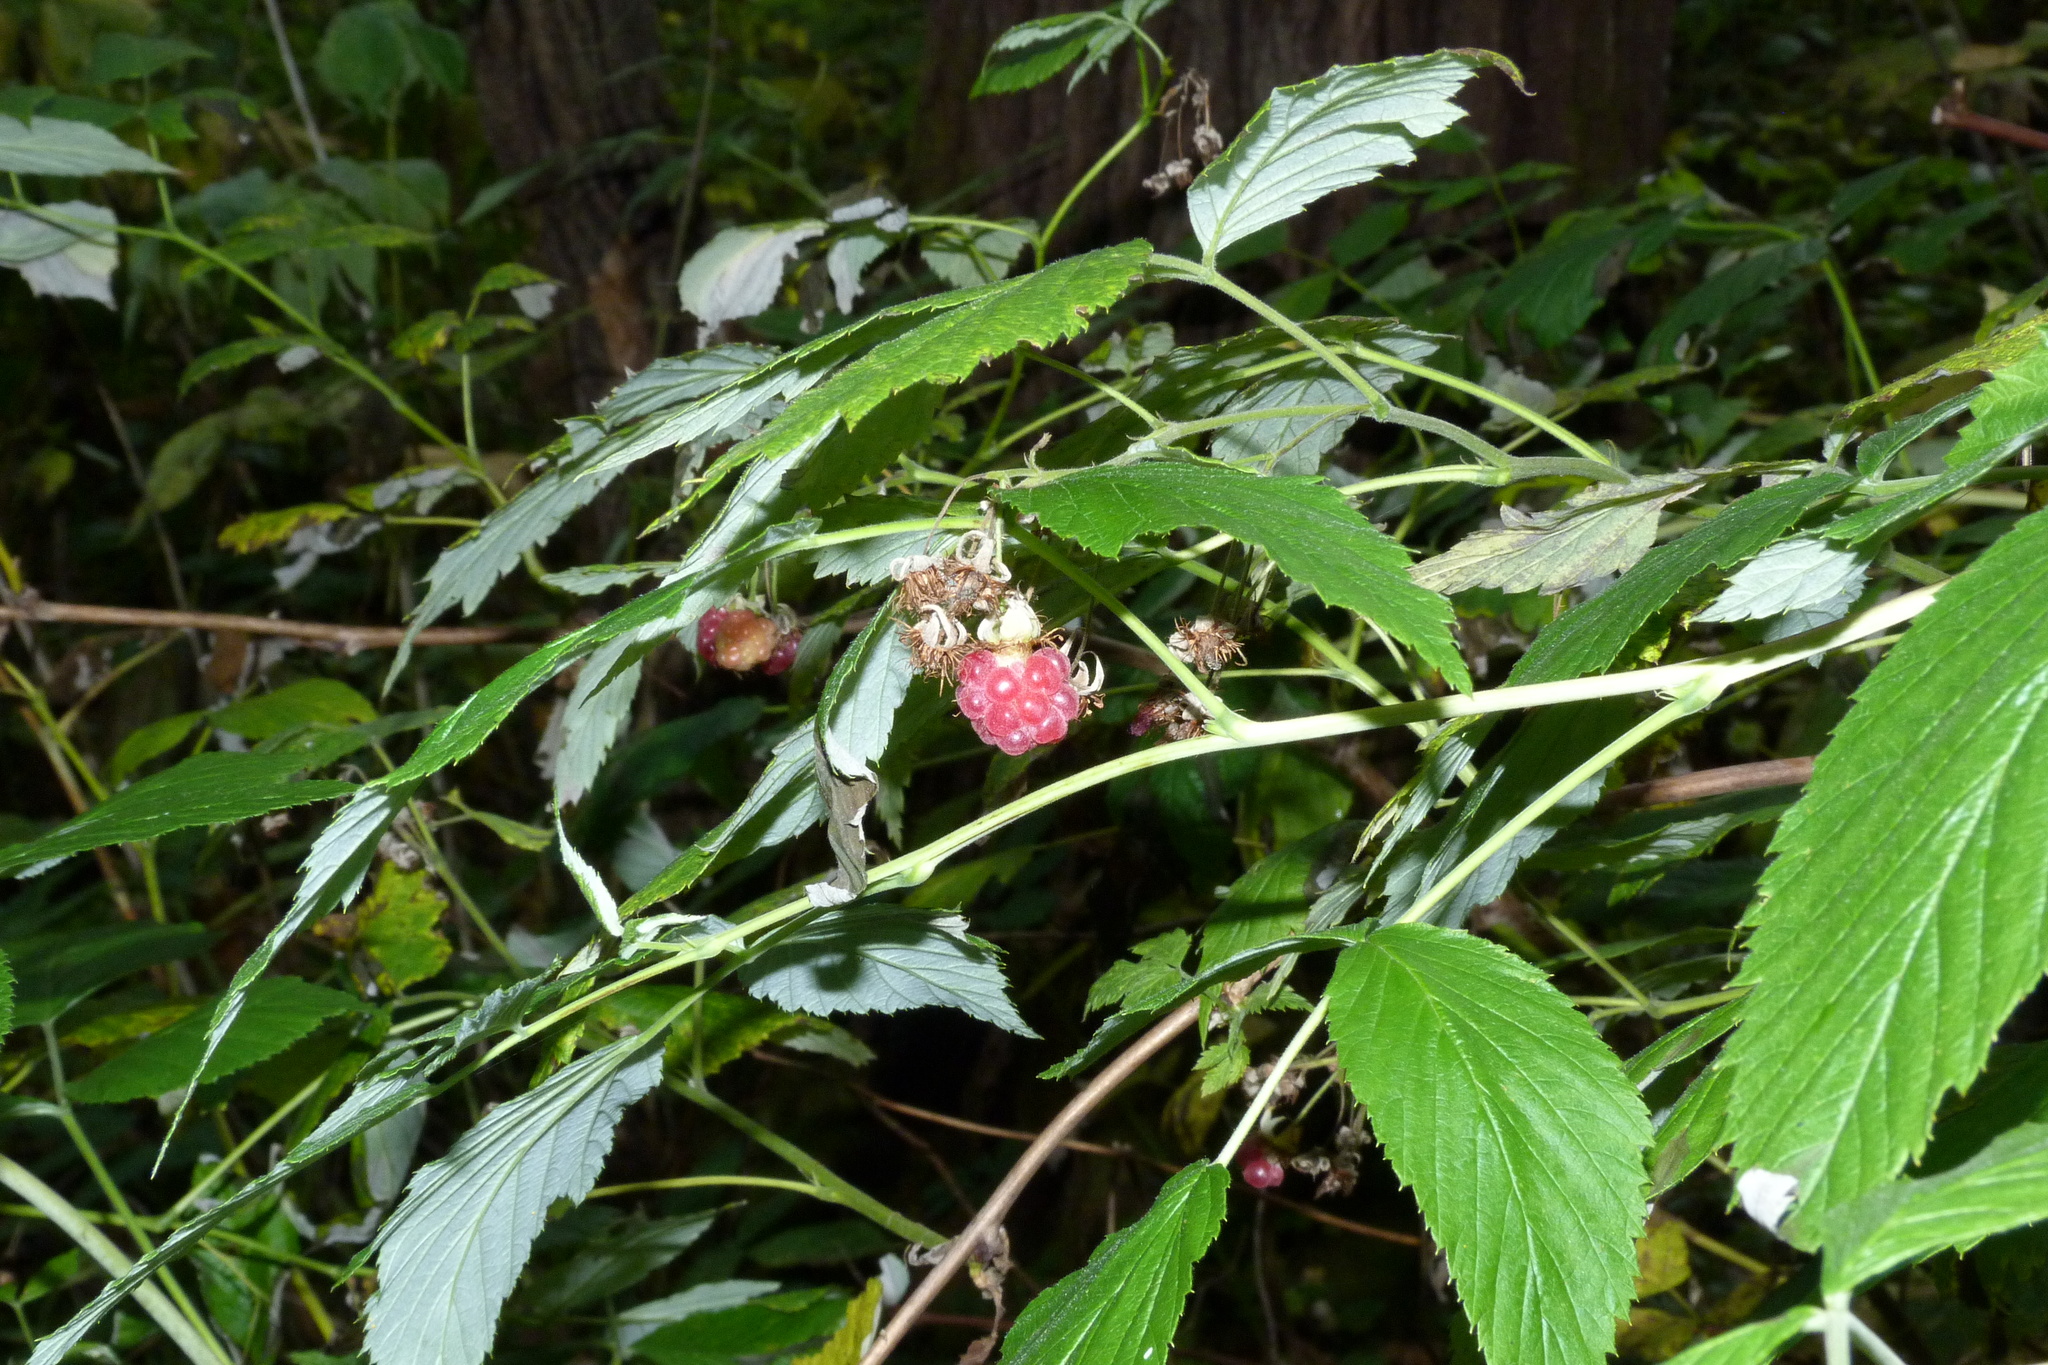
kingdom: Plantae
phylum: Tracheophyta
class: Magnoliopsida
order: Rosales
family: Rosaceae
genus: Rubus
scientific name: Rubus idaeus
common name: Raspberry
